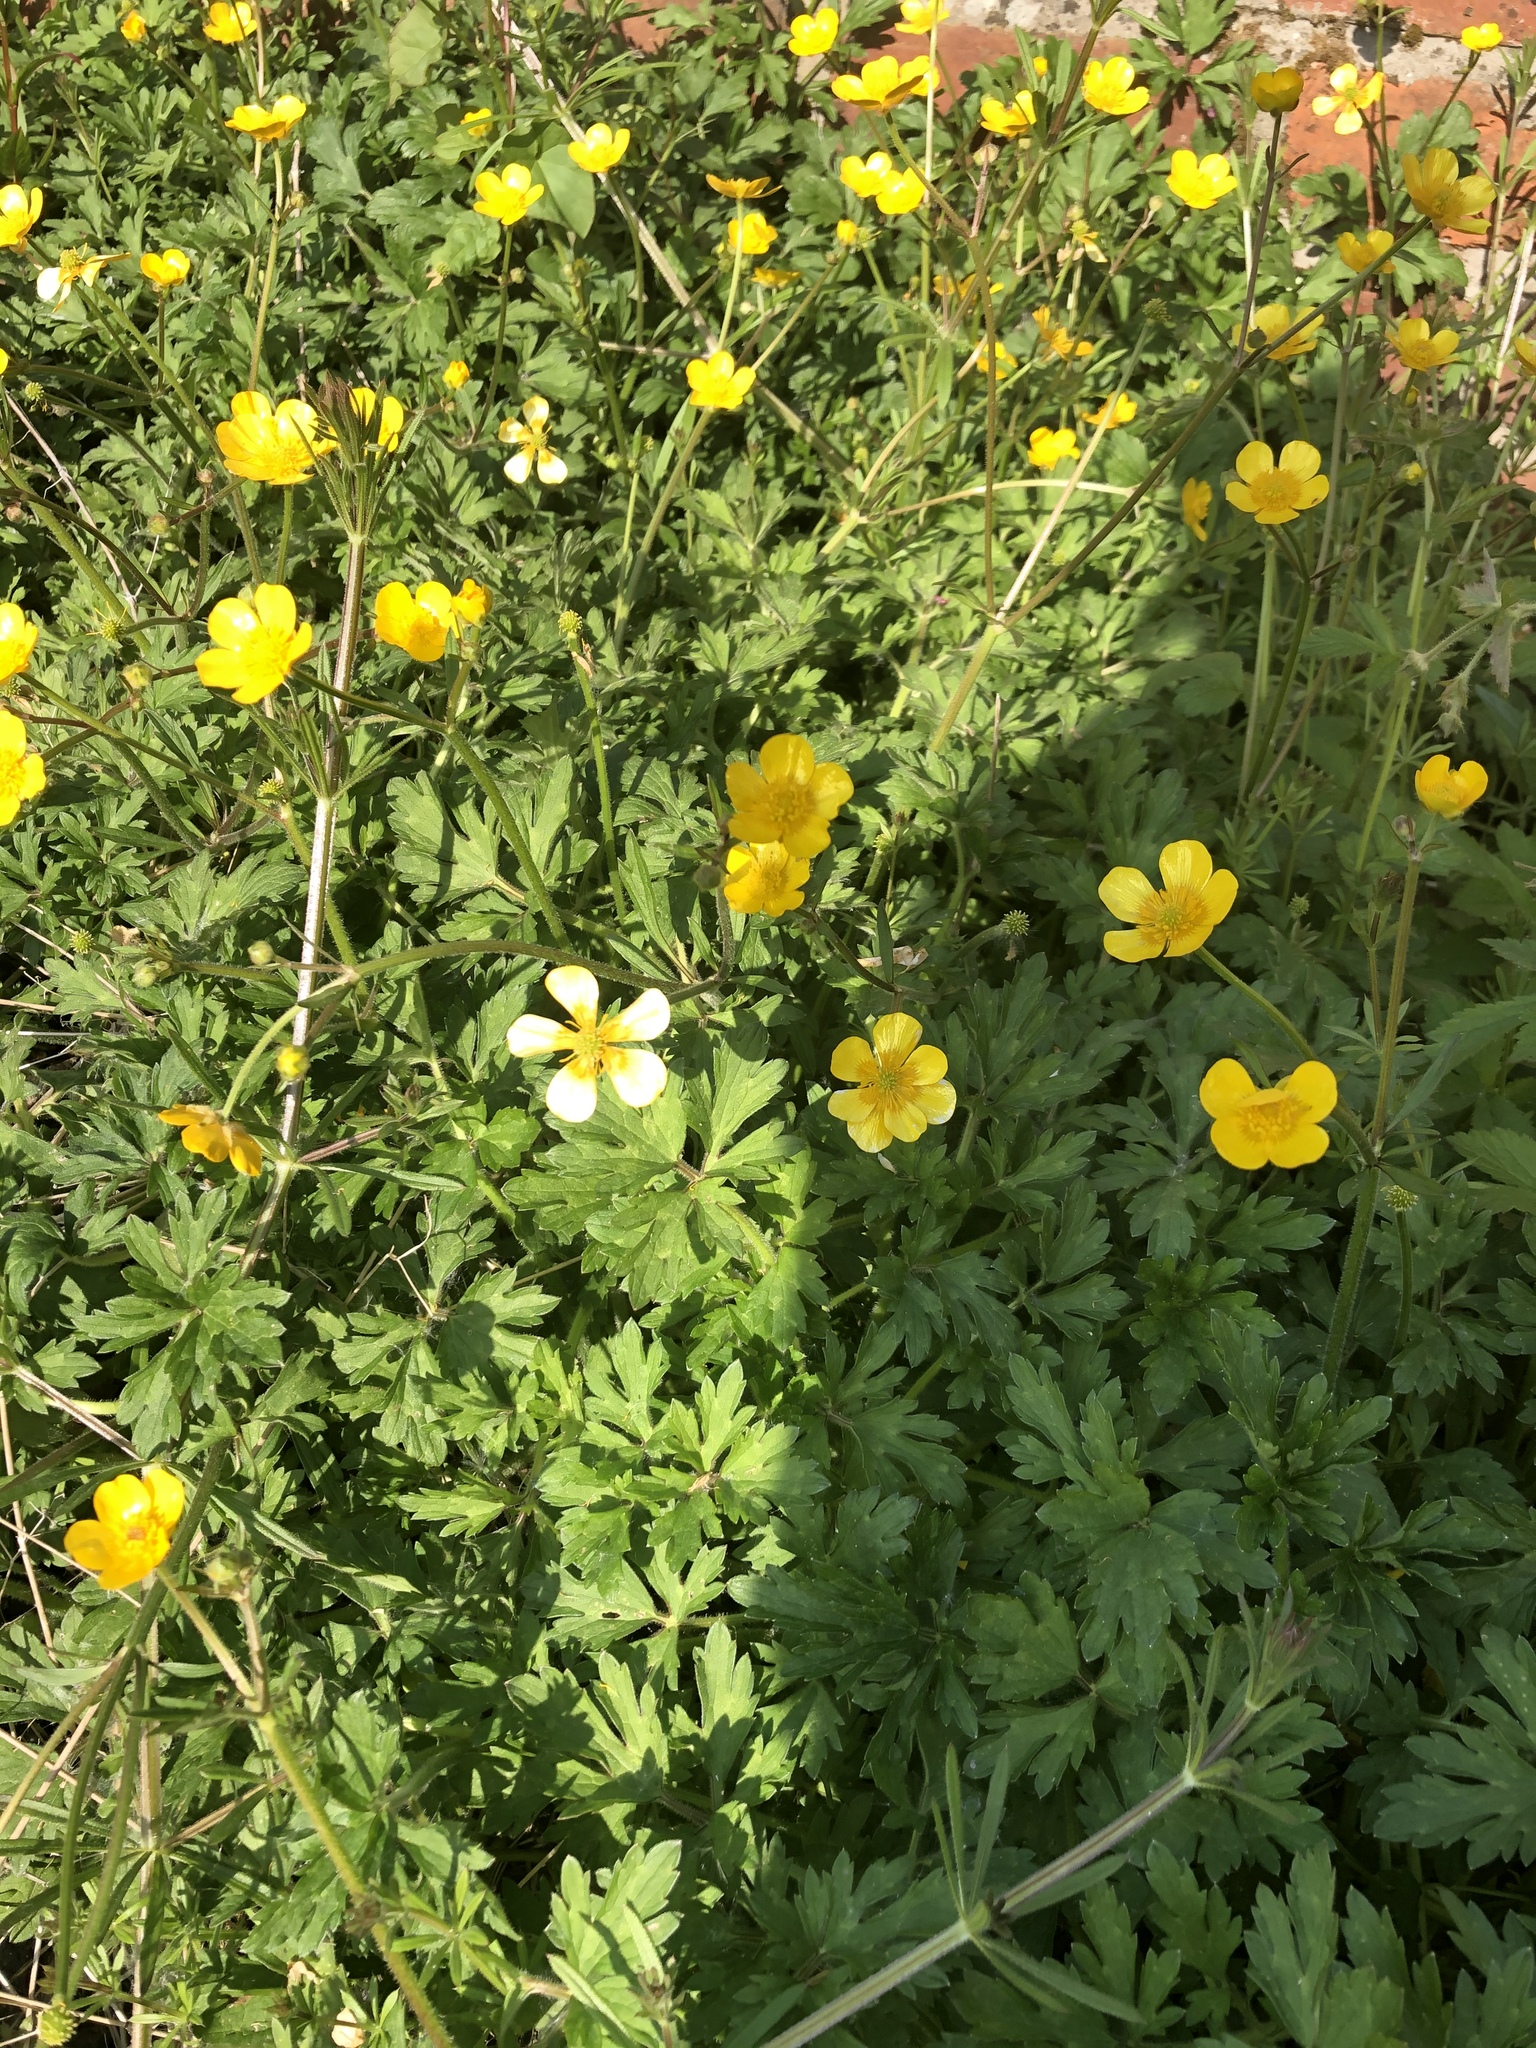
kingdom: Plantae
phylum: Tracheophyta
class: Magnoliopsida
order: Ranunculales
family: Ranunculaceae
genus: Ranunculus
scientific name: Ranunculus repens
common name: Creeping buttercup
